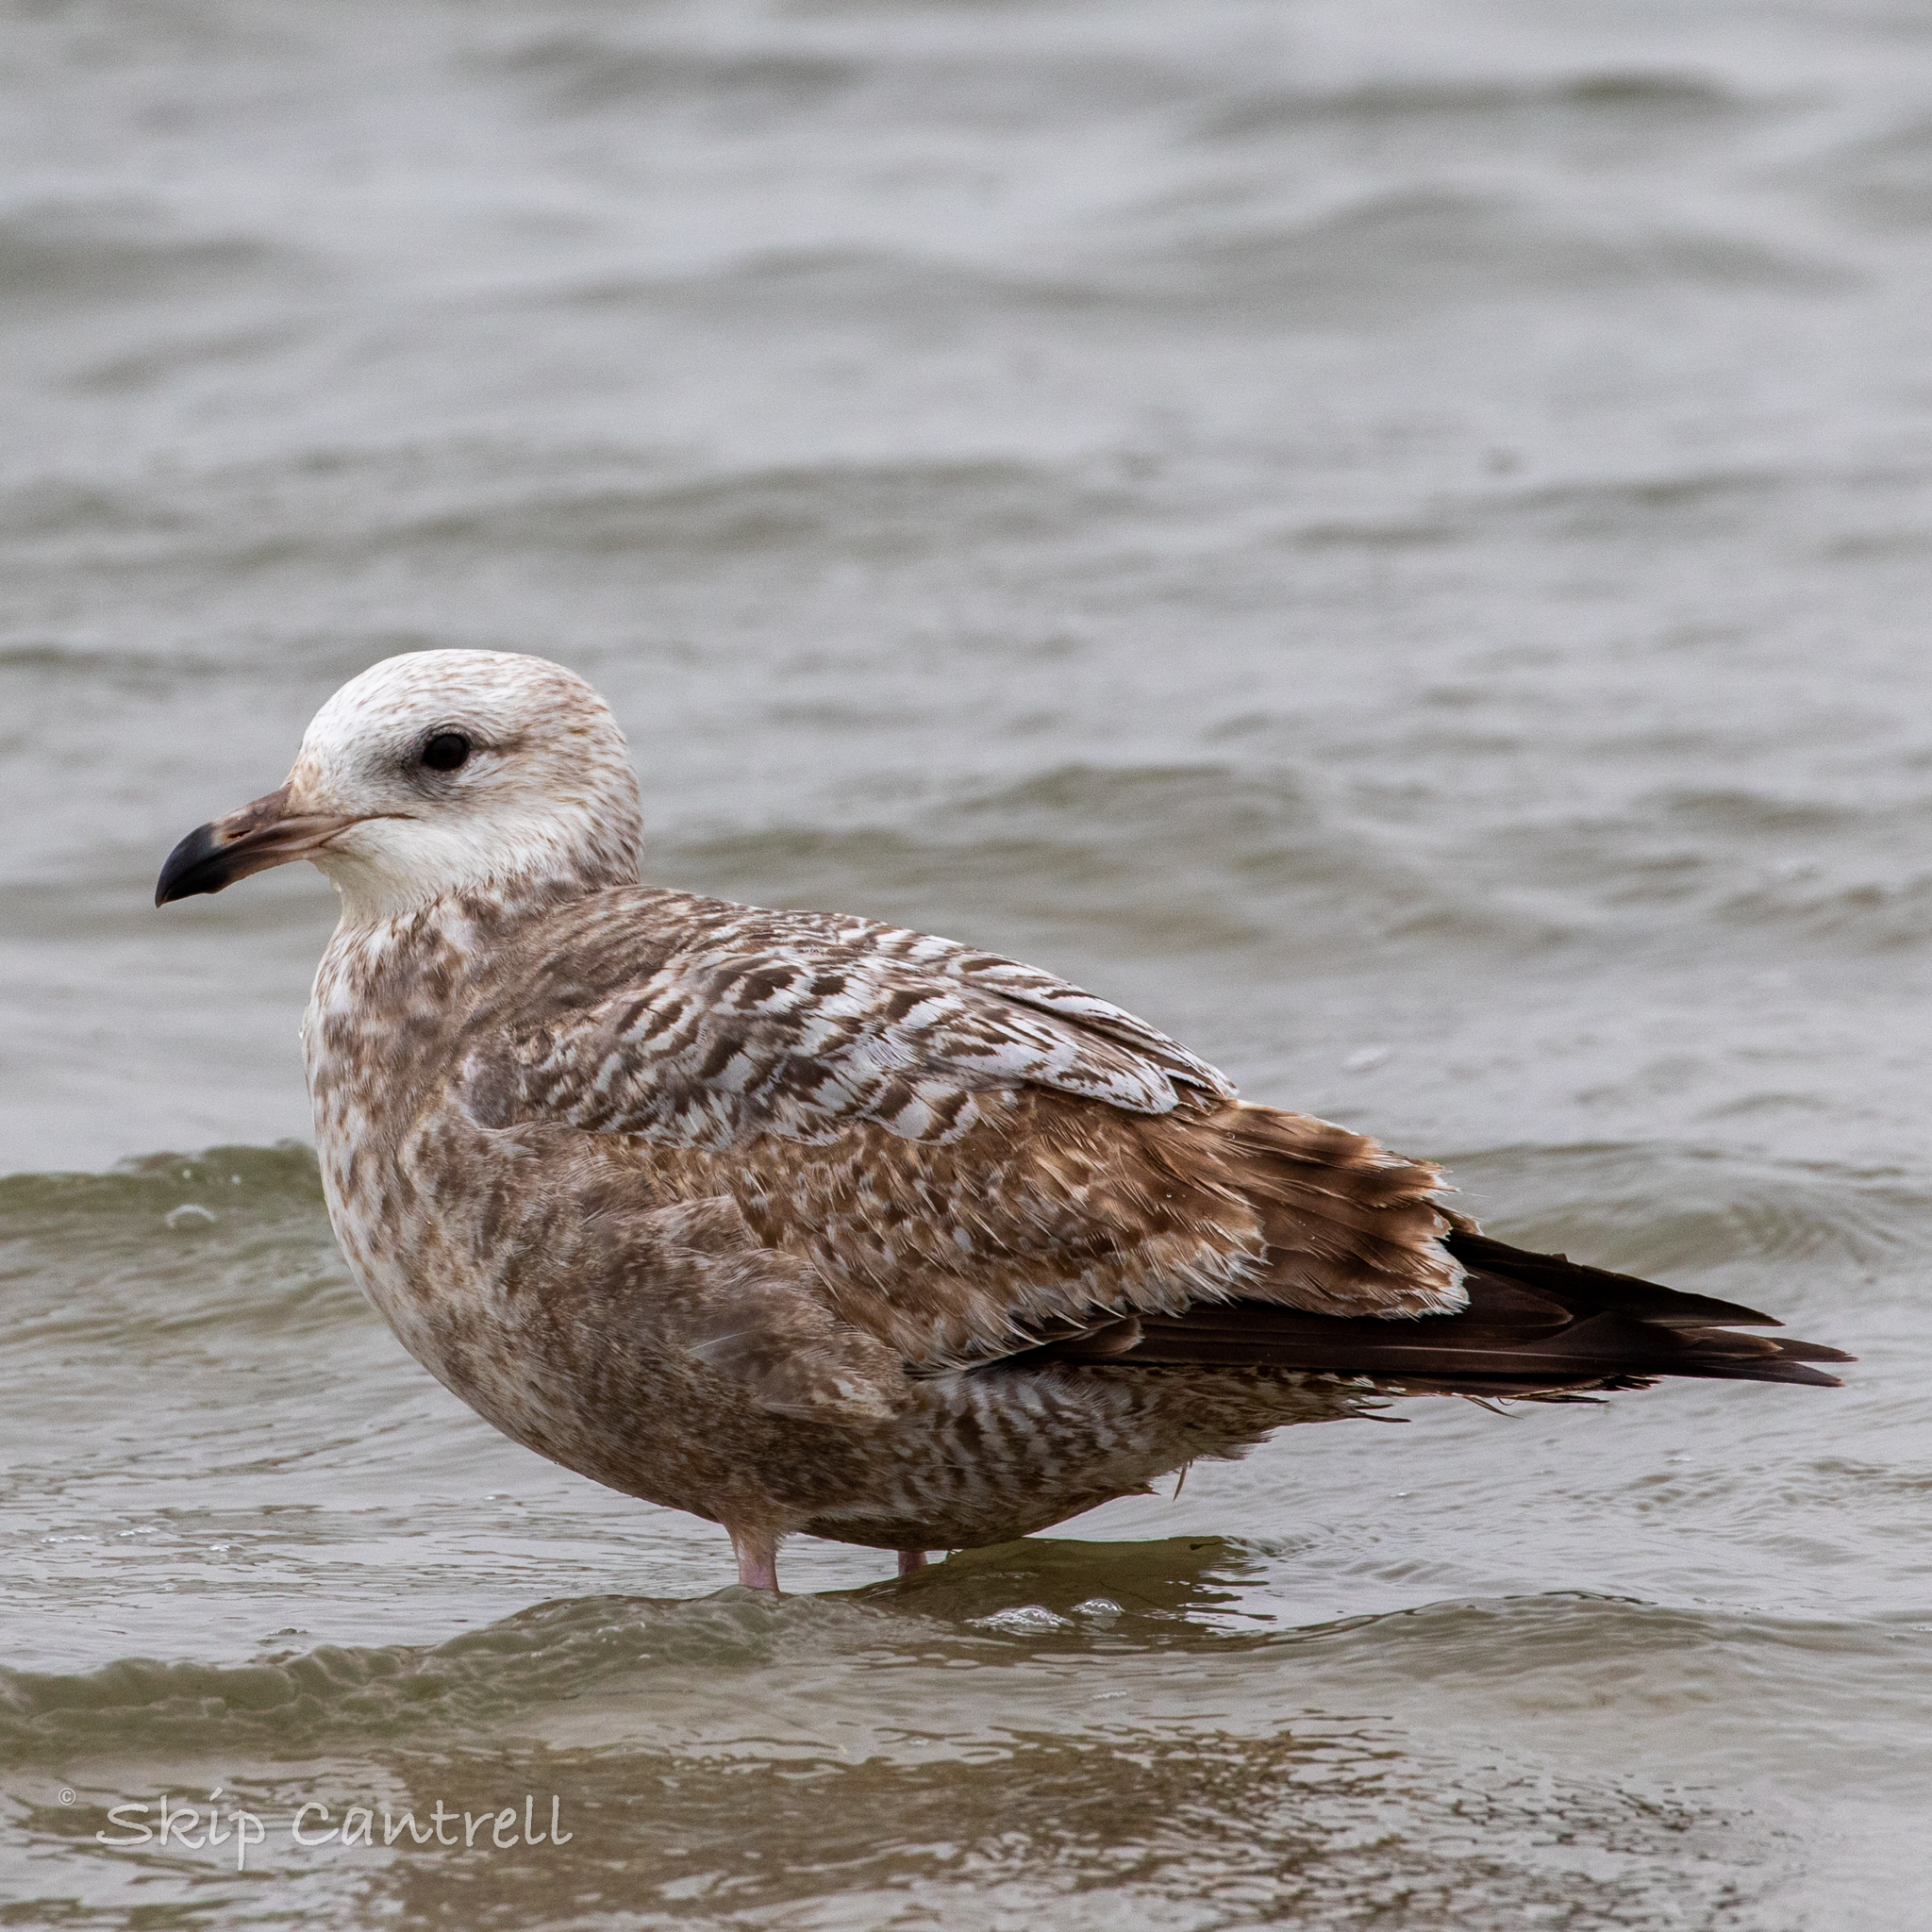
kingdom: Animalia
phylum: Chordata
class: Aves
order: Charadriiformes
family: Laridae
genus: Larus
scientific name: Larus argentatus
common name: Herring gull
